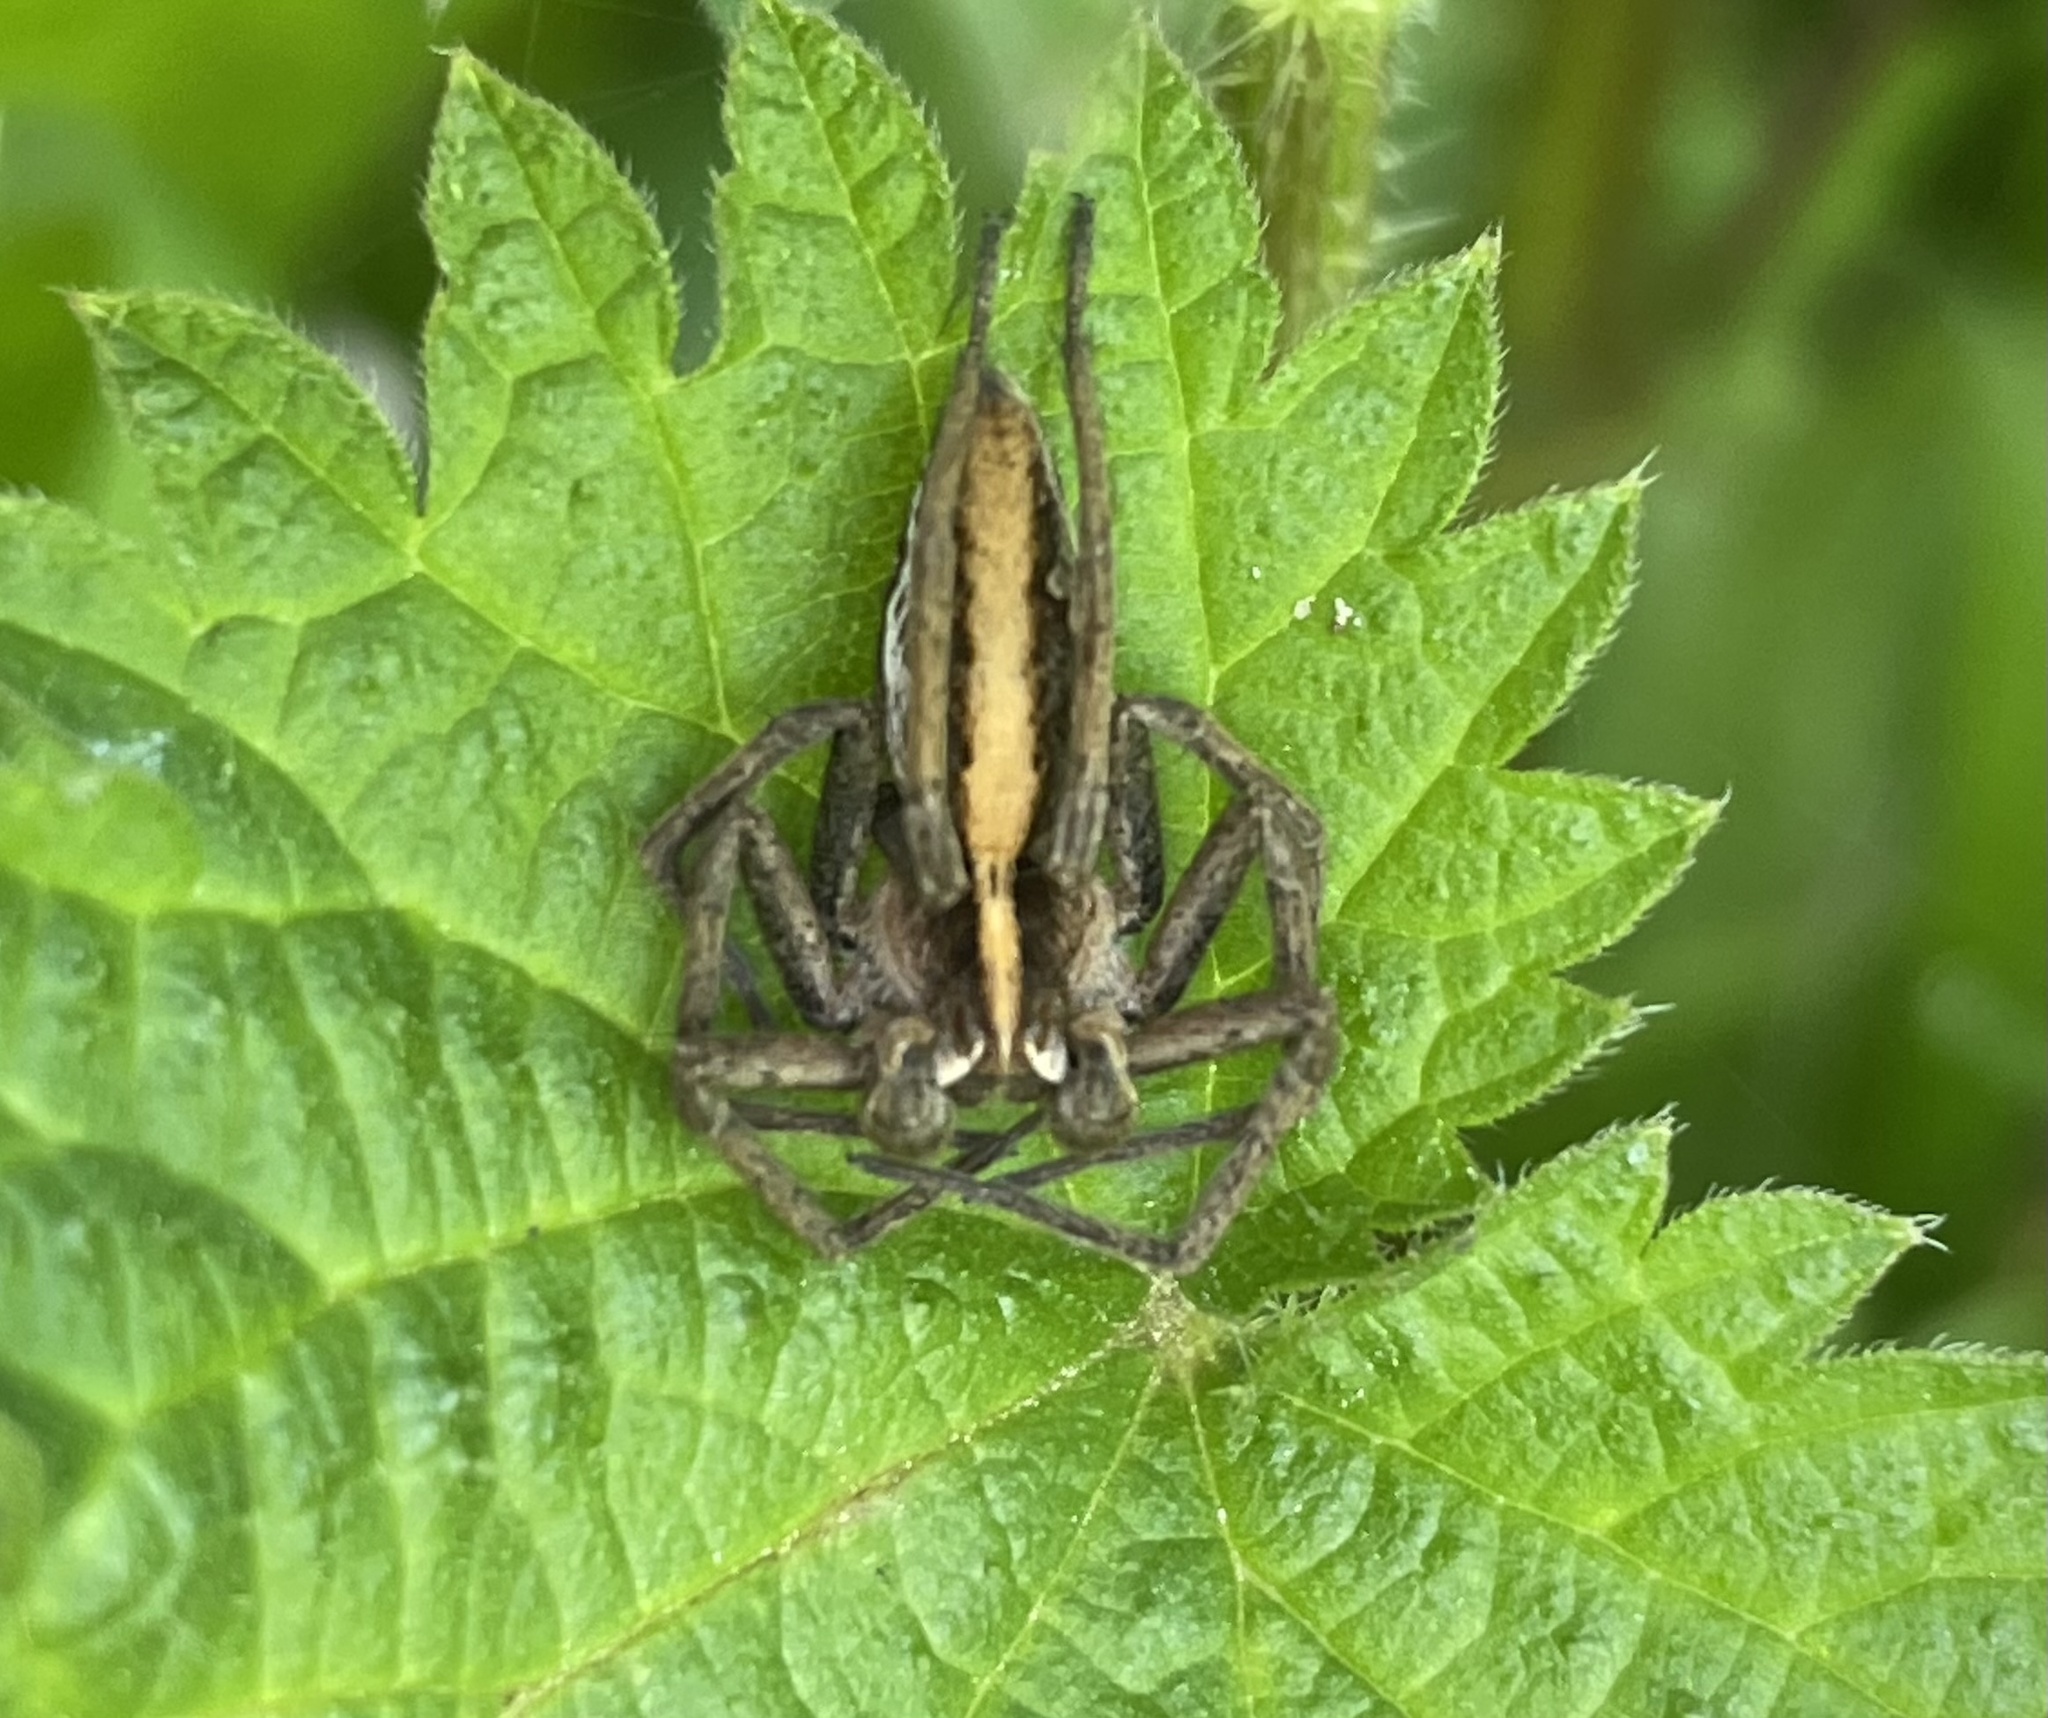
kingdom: Animalia
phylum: Arthropoda
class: Arachnida
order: Araneae
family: Pisauridae
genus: Pisaura
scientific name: Pisaura mirabilis
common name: Tent spider
